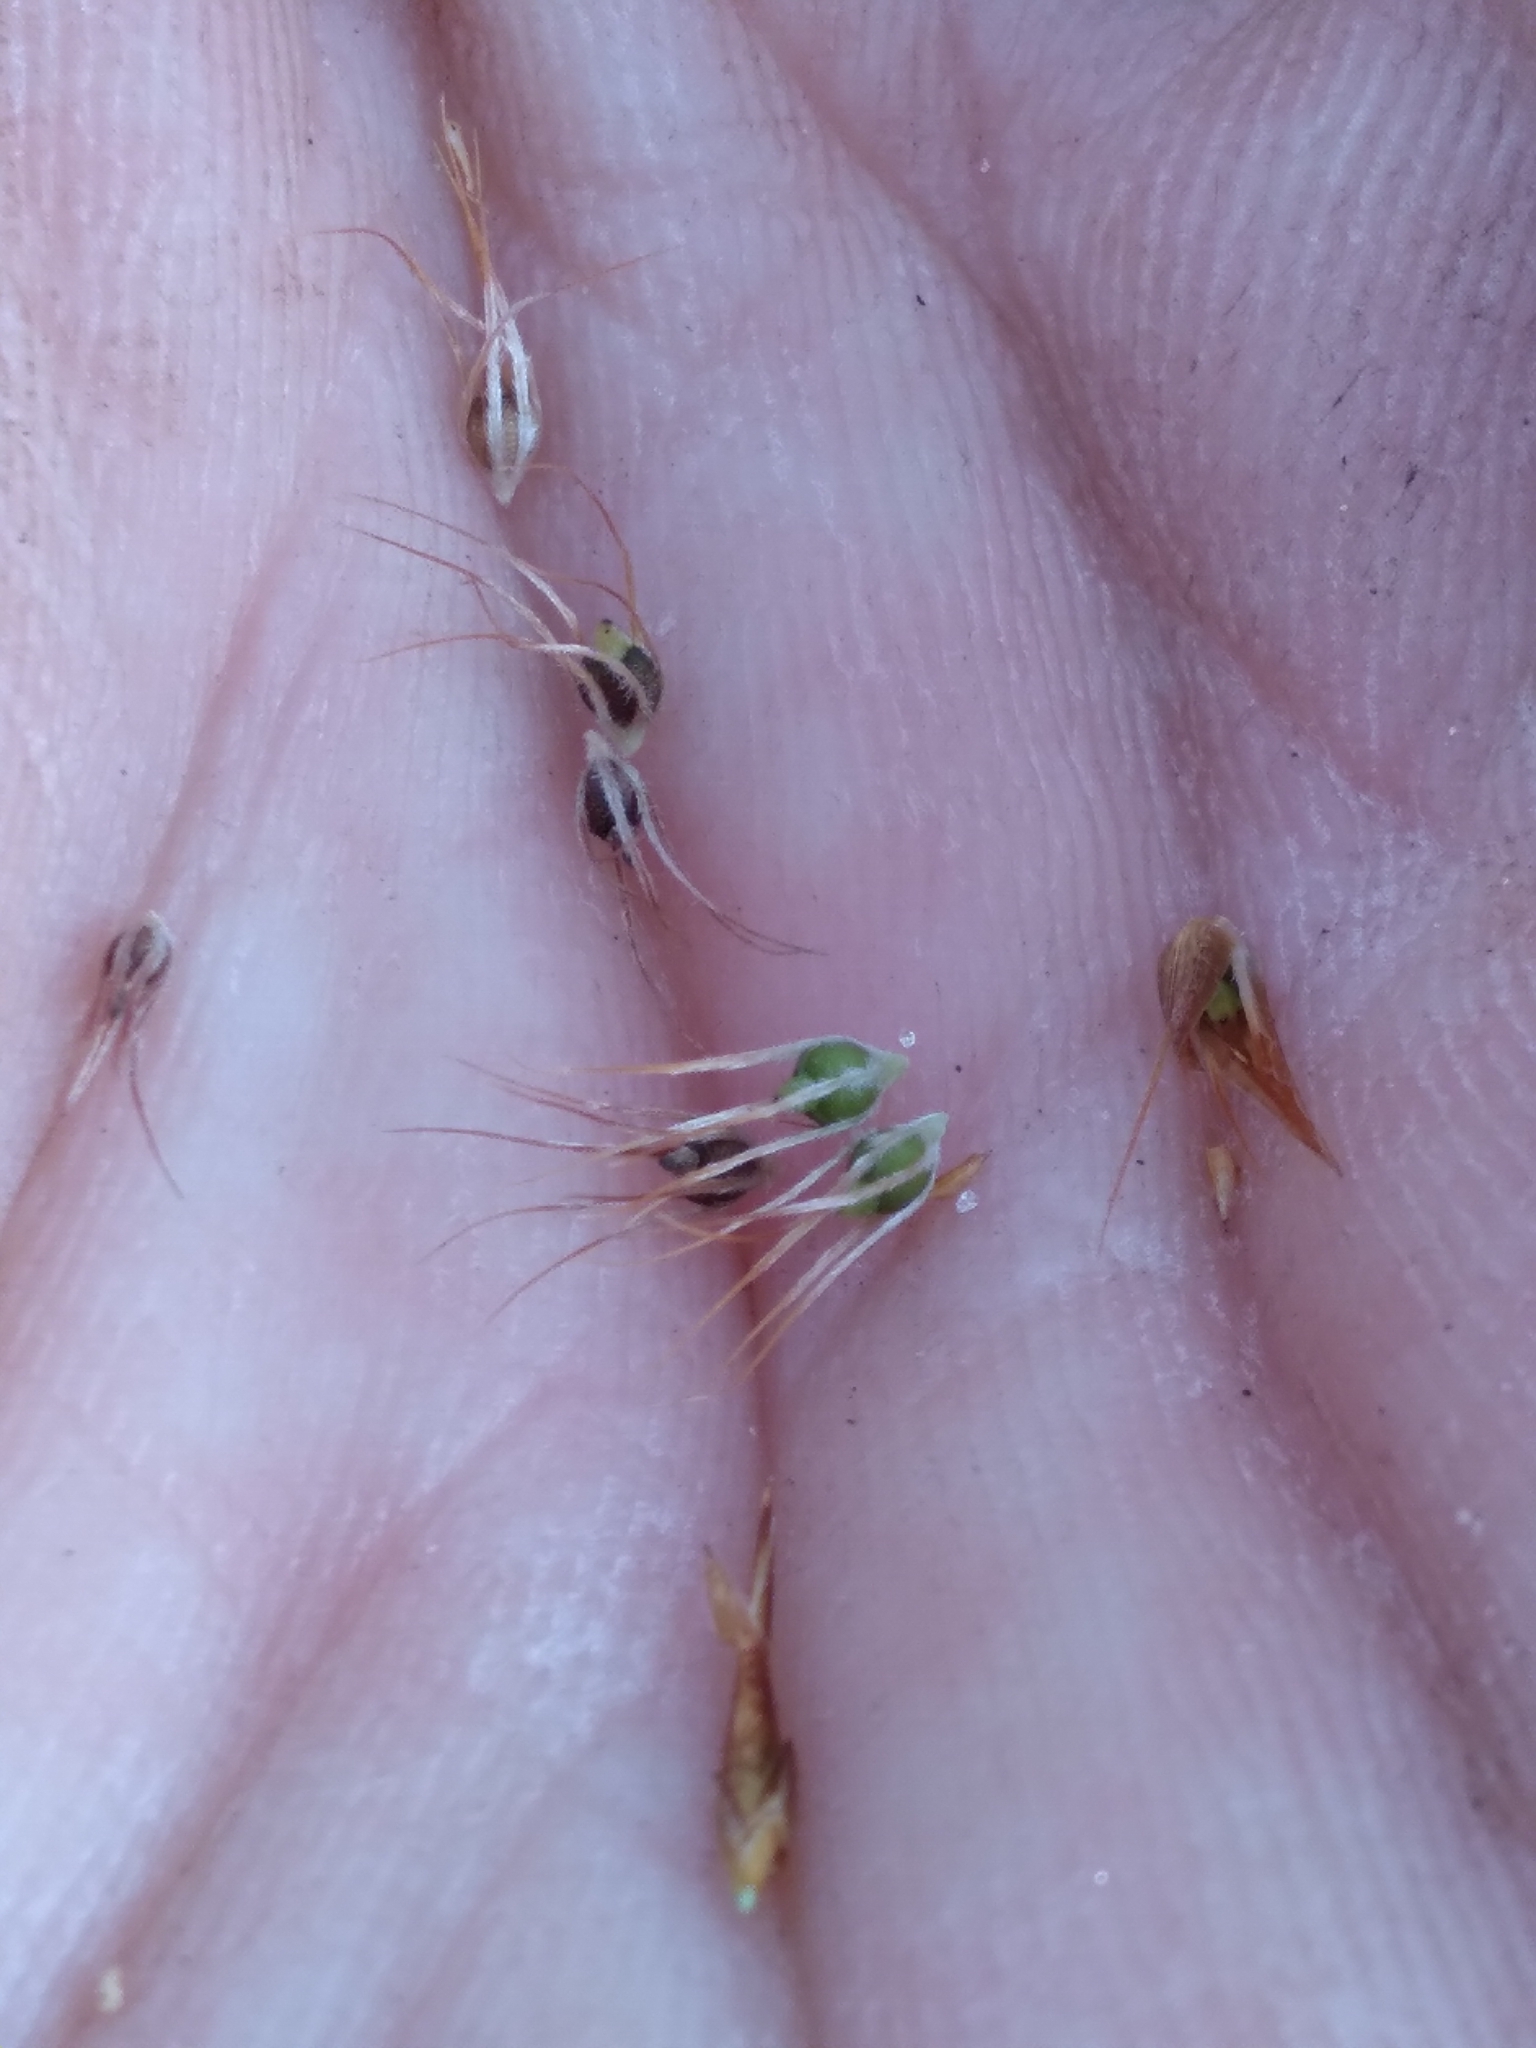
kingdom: Plantae
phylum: Tracheophyta
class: Liliopsida
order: Poales
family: Cyperaceae
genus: Rhynchospora
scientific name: Rhynchospora megaplumosa
